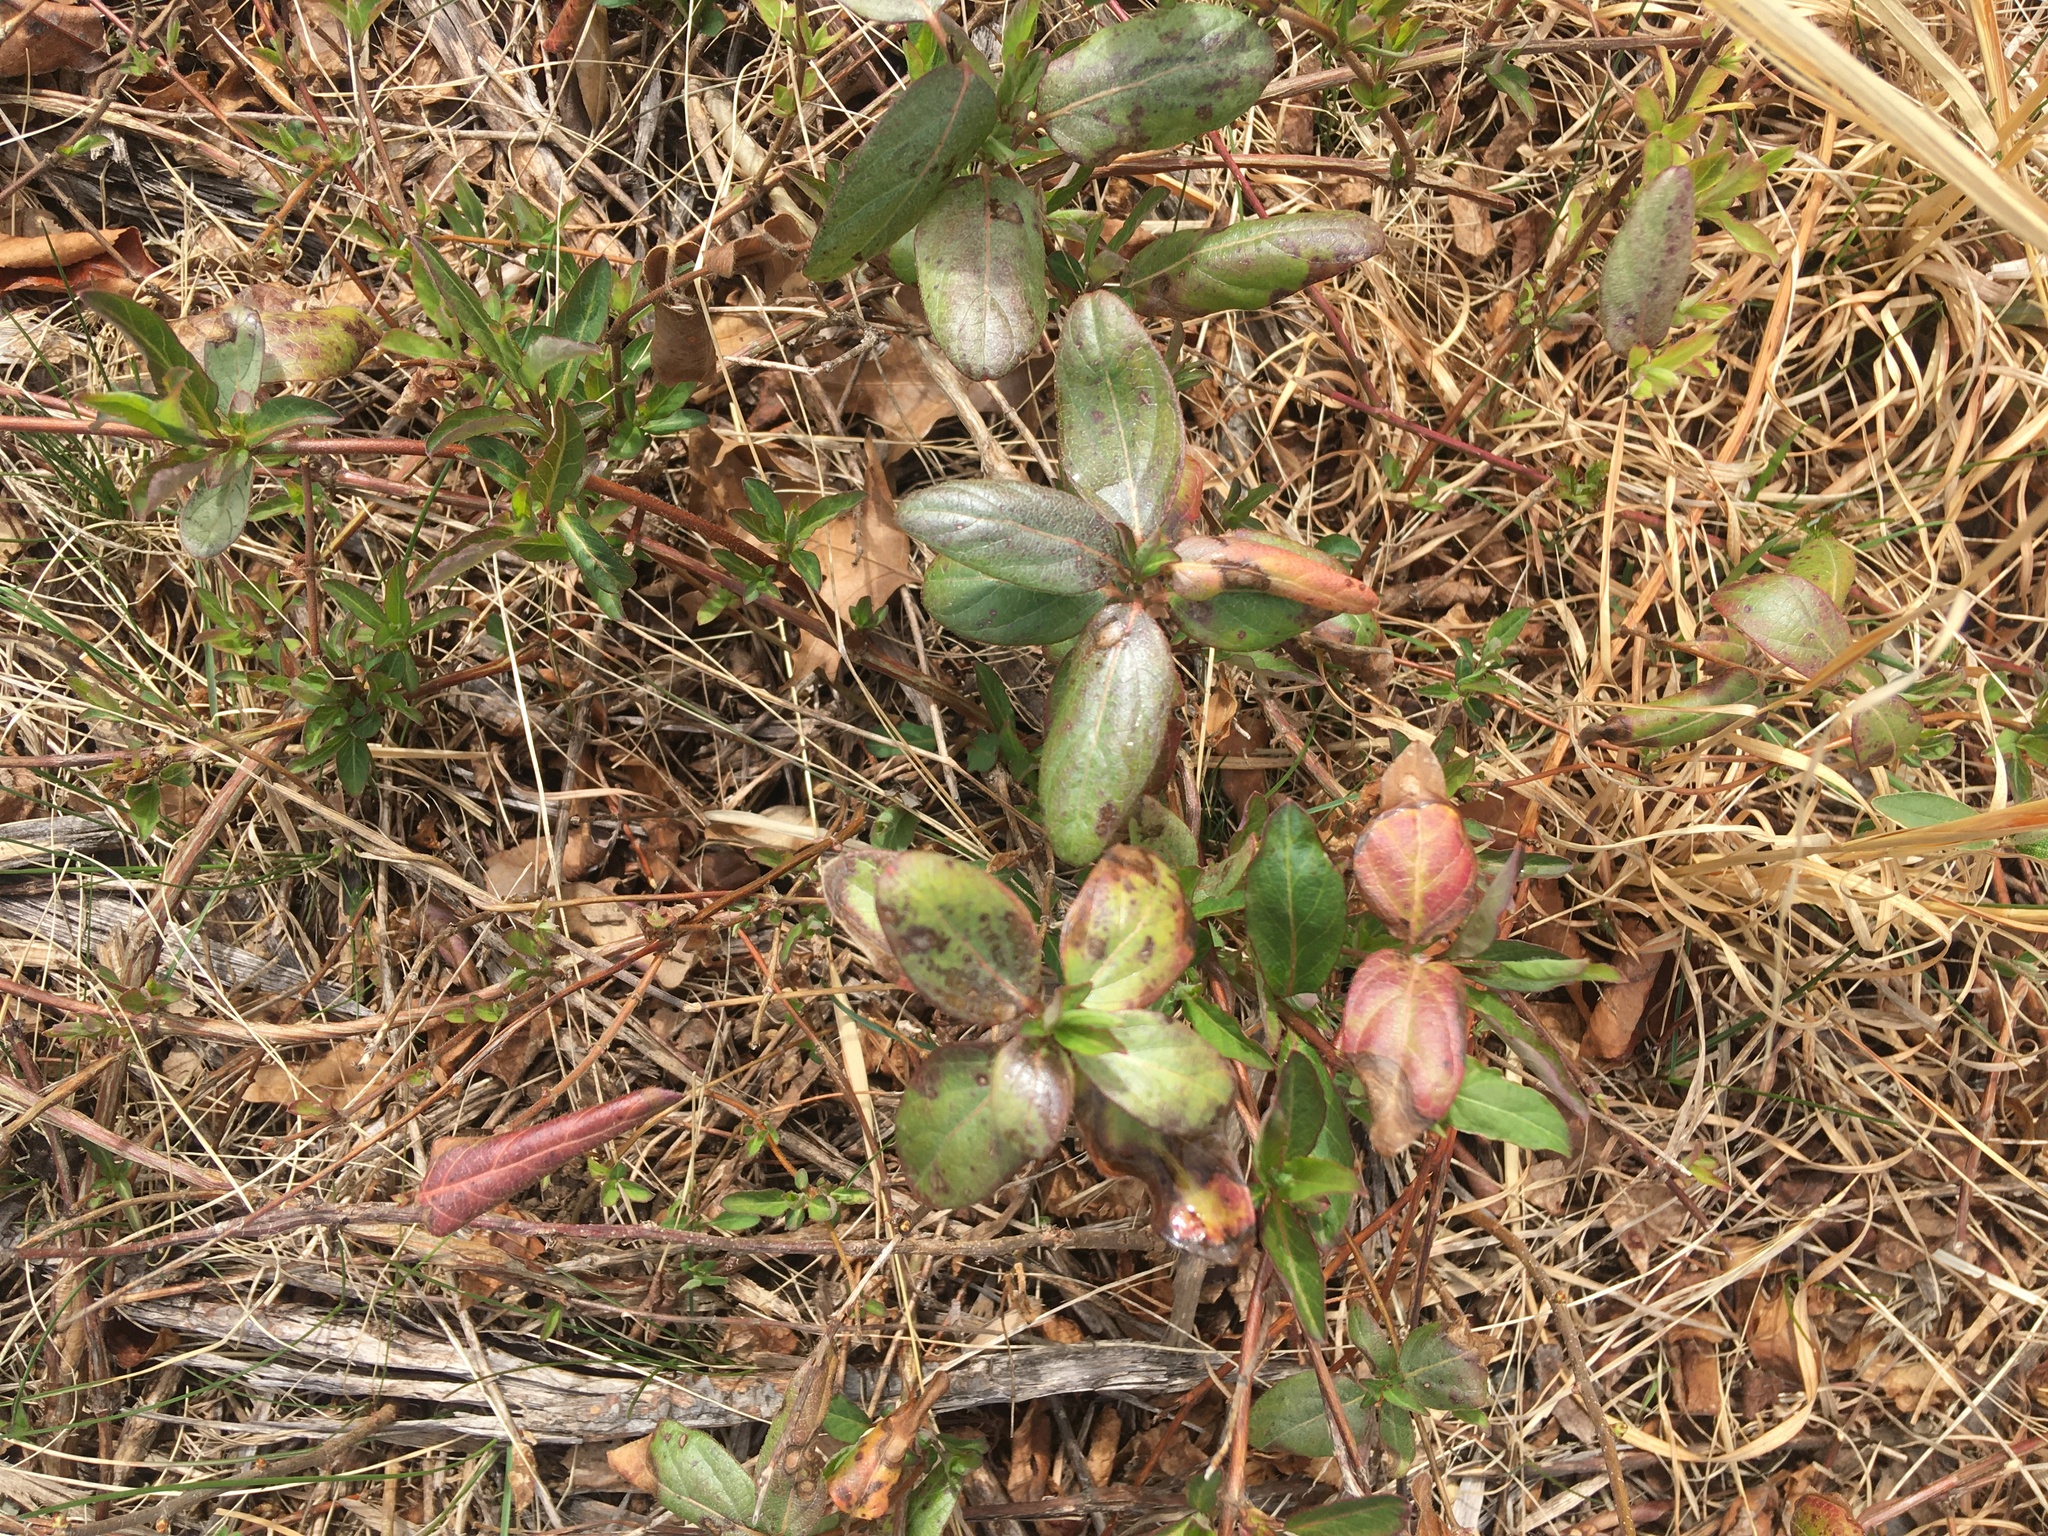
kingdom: Plantae
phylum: Tracheophyta
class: Magnoliopsida
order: Dipsacales
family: Caprifoliaceae
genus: Lonicera
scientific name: Lonicera japonica
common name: Japanese honeysuckle
